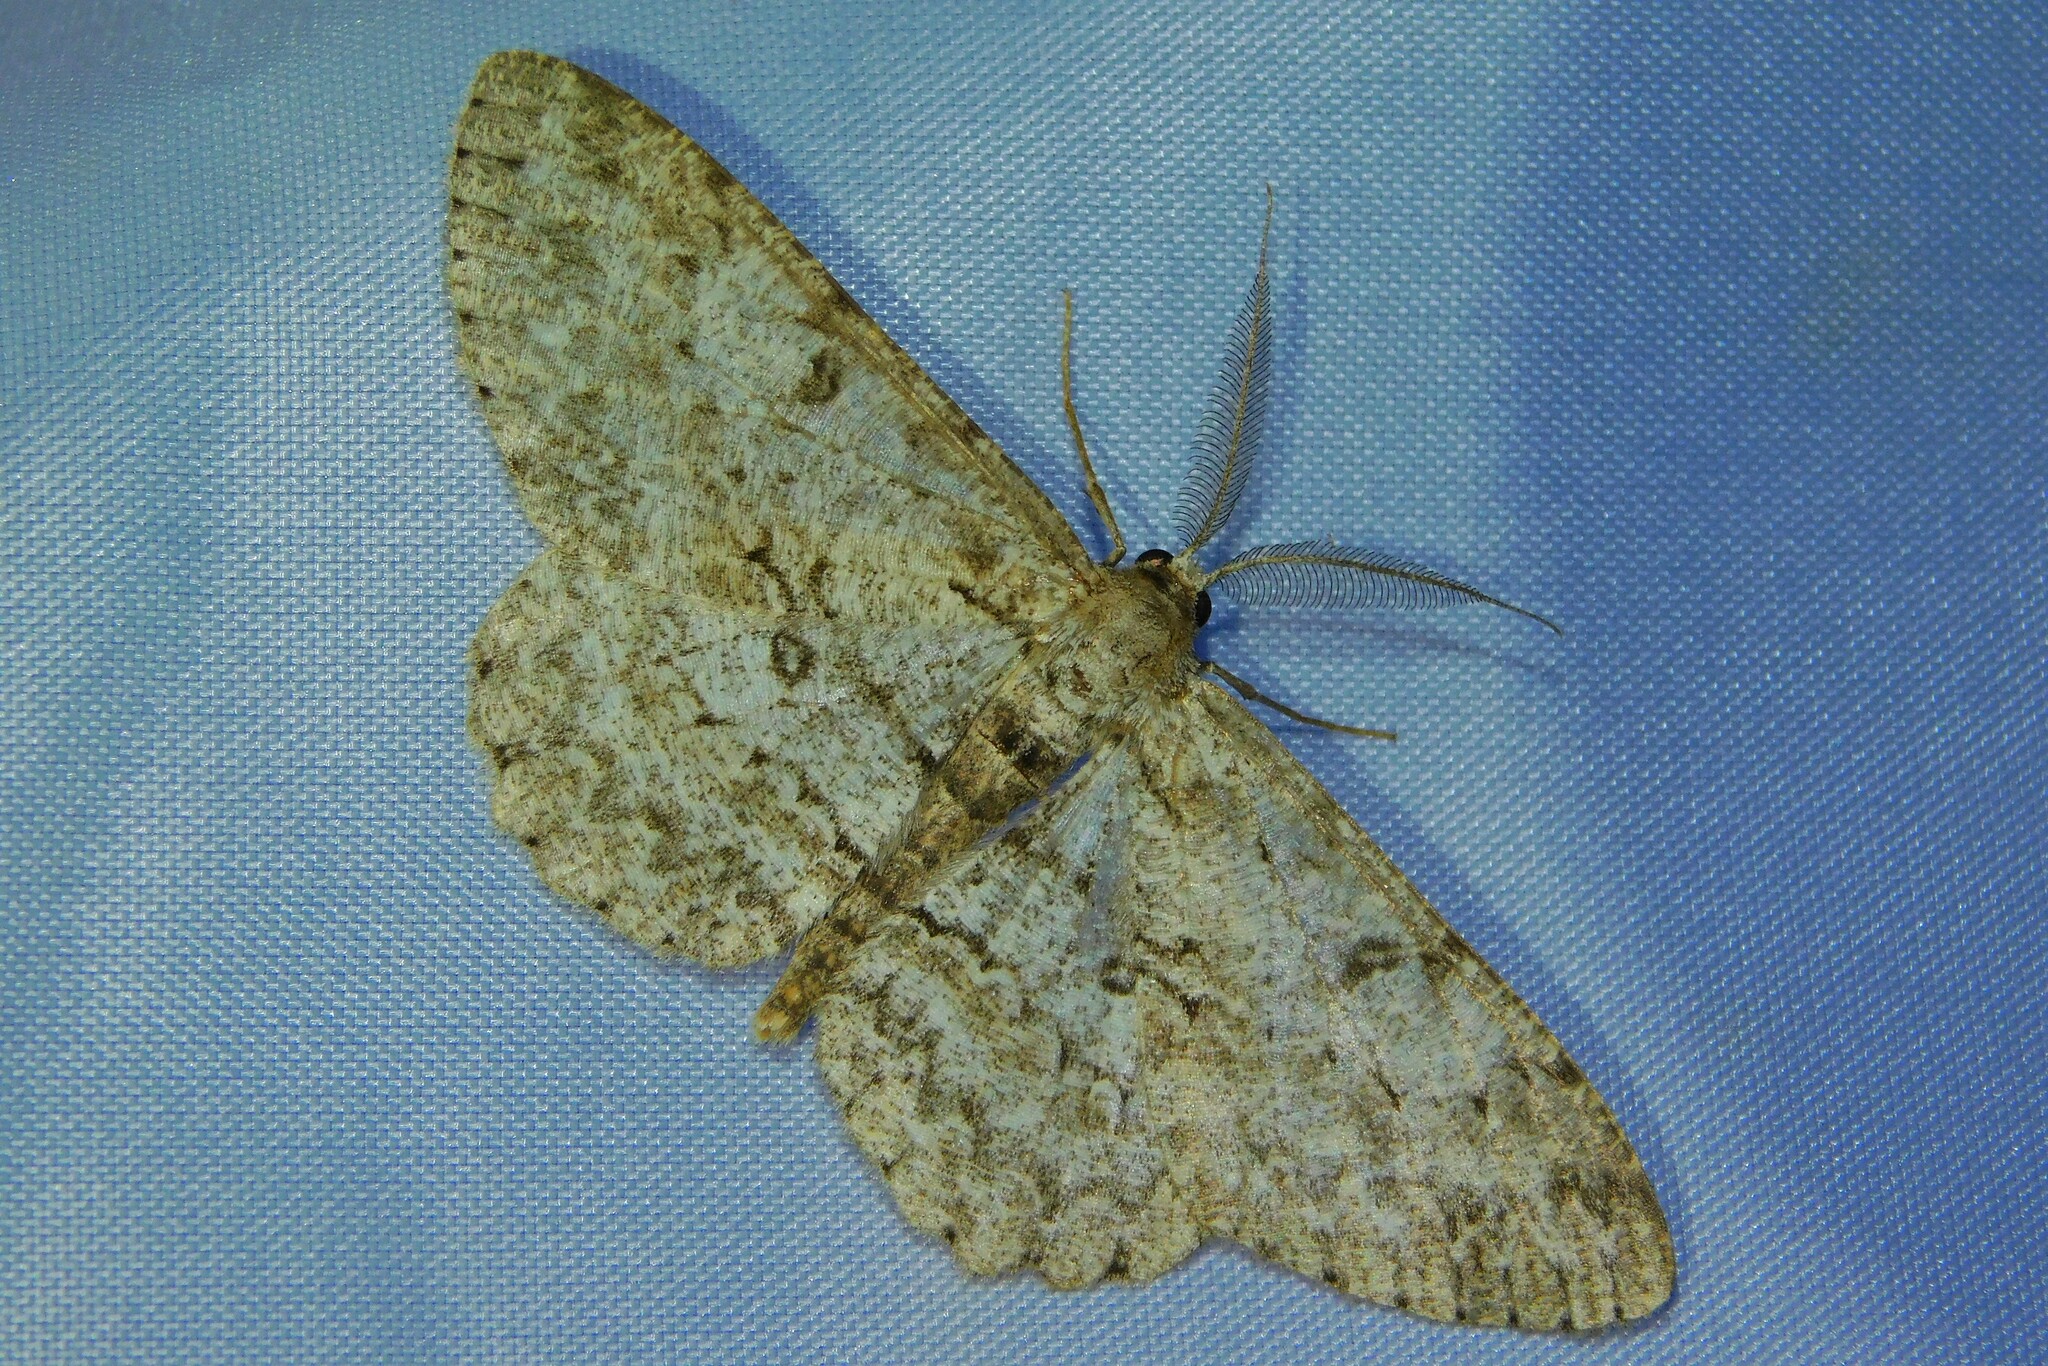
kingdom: Animalia
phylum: Arthropoda
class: Insecta
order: Lepidoptera
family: Geometridae
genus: Hypomecis
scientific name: Hypomecis punctinalis
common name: Pale oak beauty
